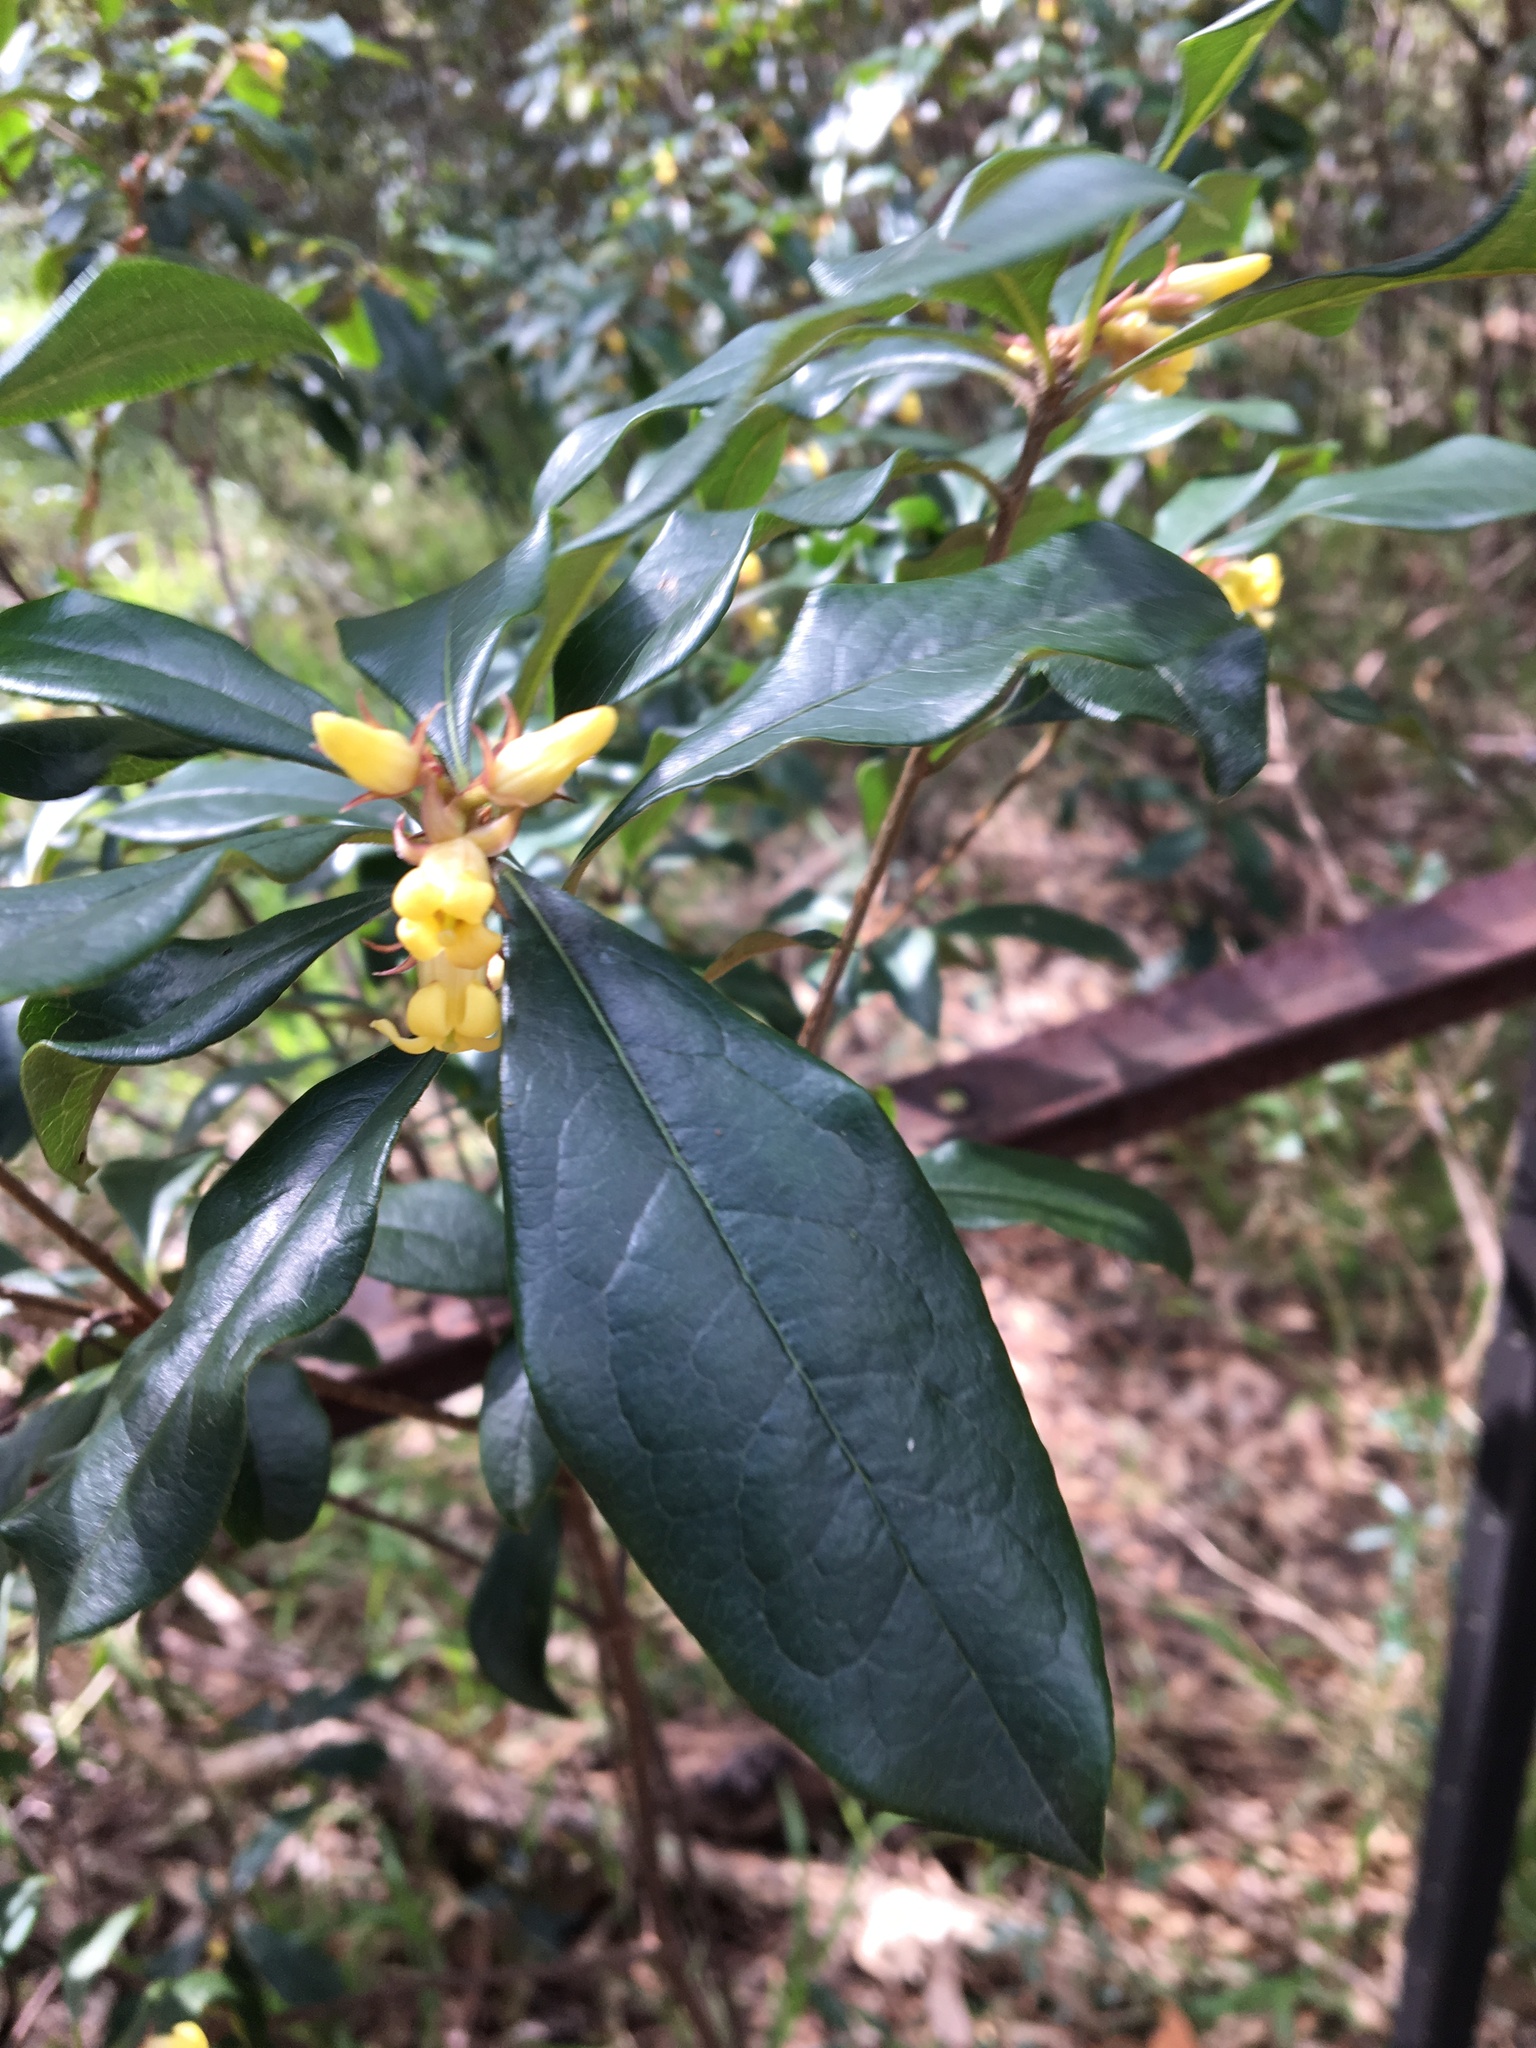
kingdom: Plantae
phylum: Tracheophyta
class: Magnoliopsida
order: Apiales
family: Pittosporaceae
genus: Pittosporum
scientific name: Pittosporum revolutum
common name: Brisbane-laurel
